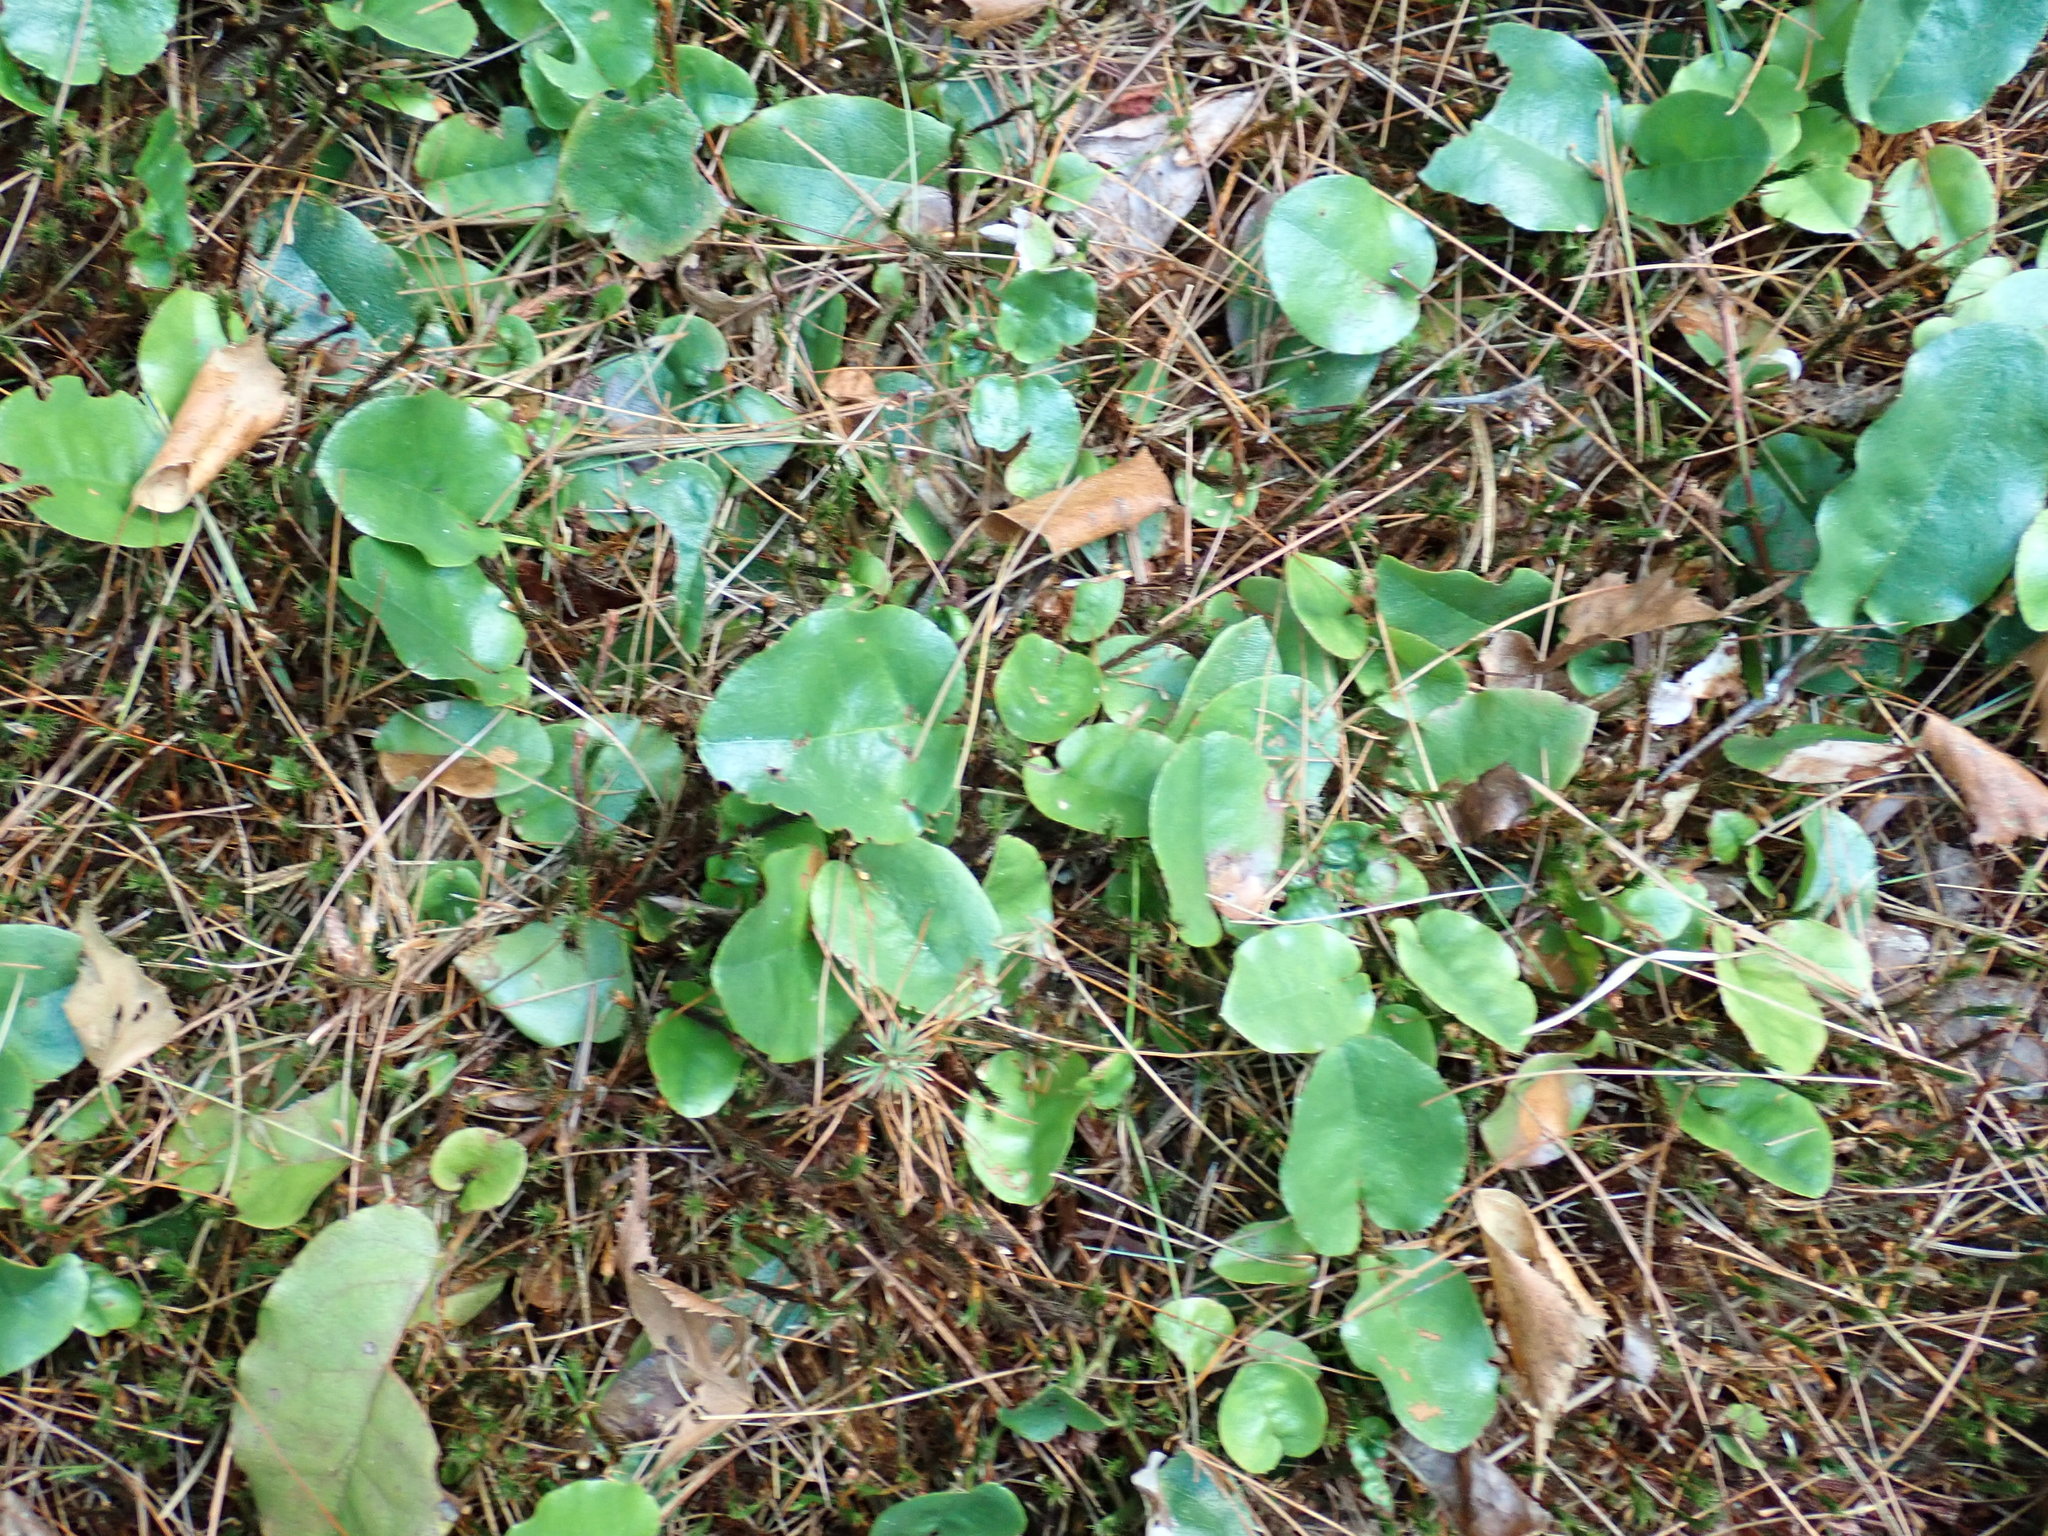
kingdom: Plantae
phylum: Tracheophyta
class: Magnoliopsida
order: Ericales
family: Ericaceae
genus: Epigaea
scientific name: Epigaea repens
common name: Gravelroot
